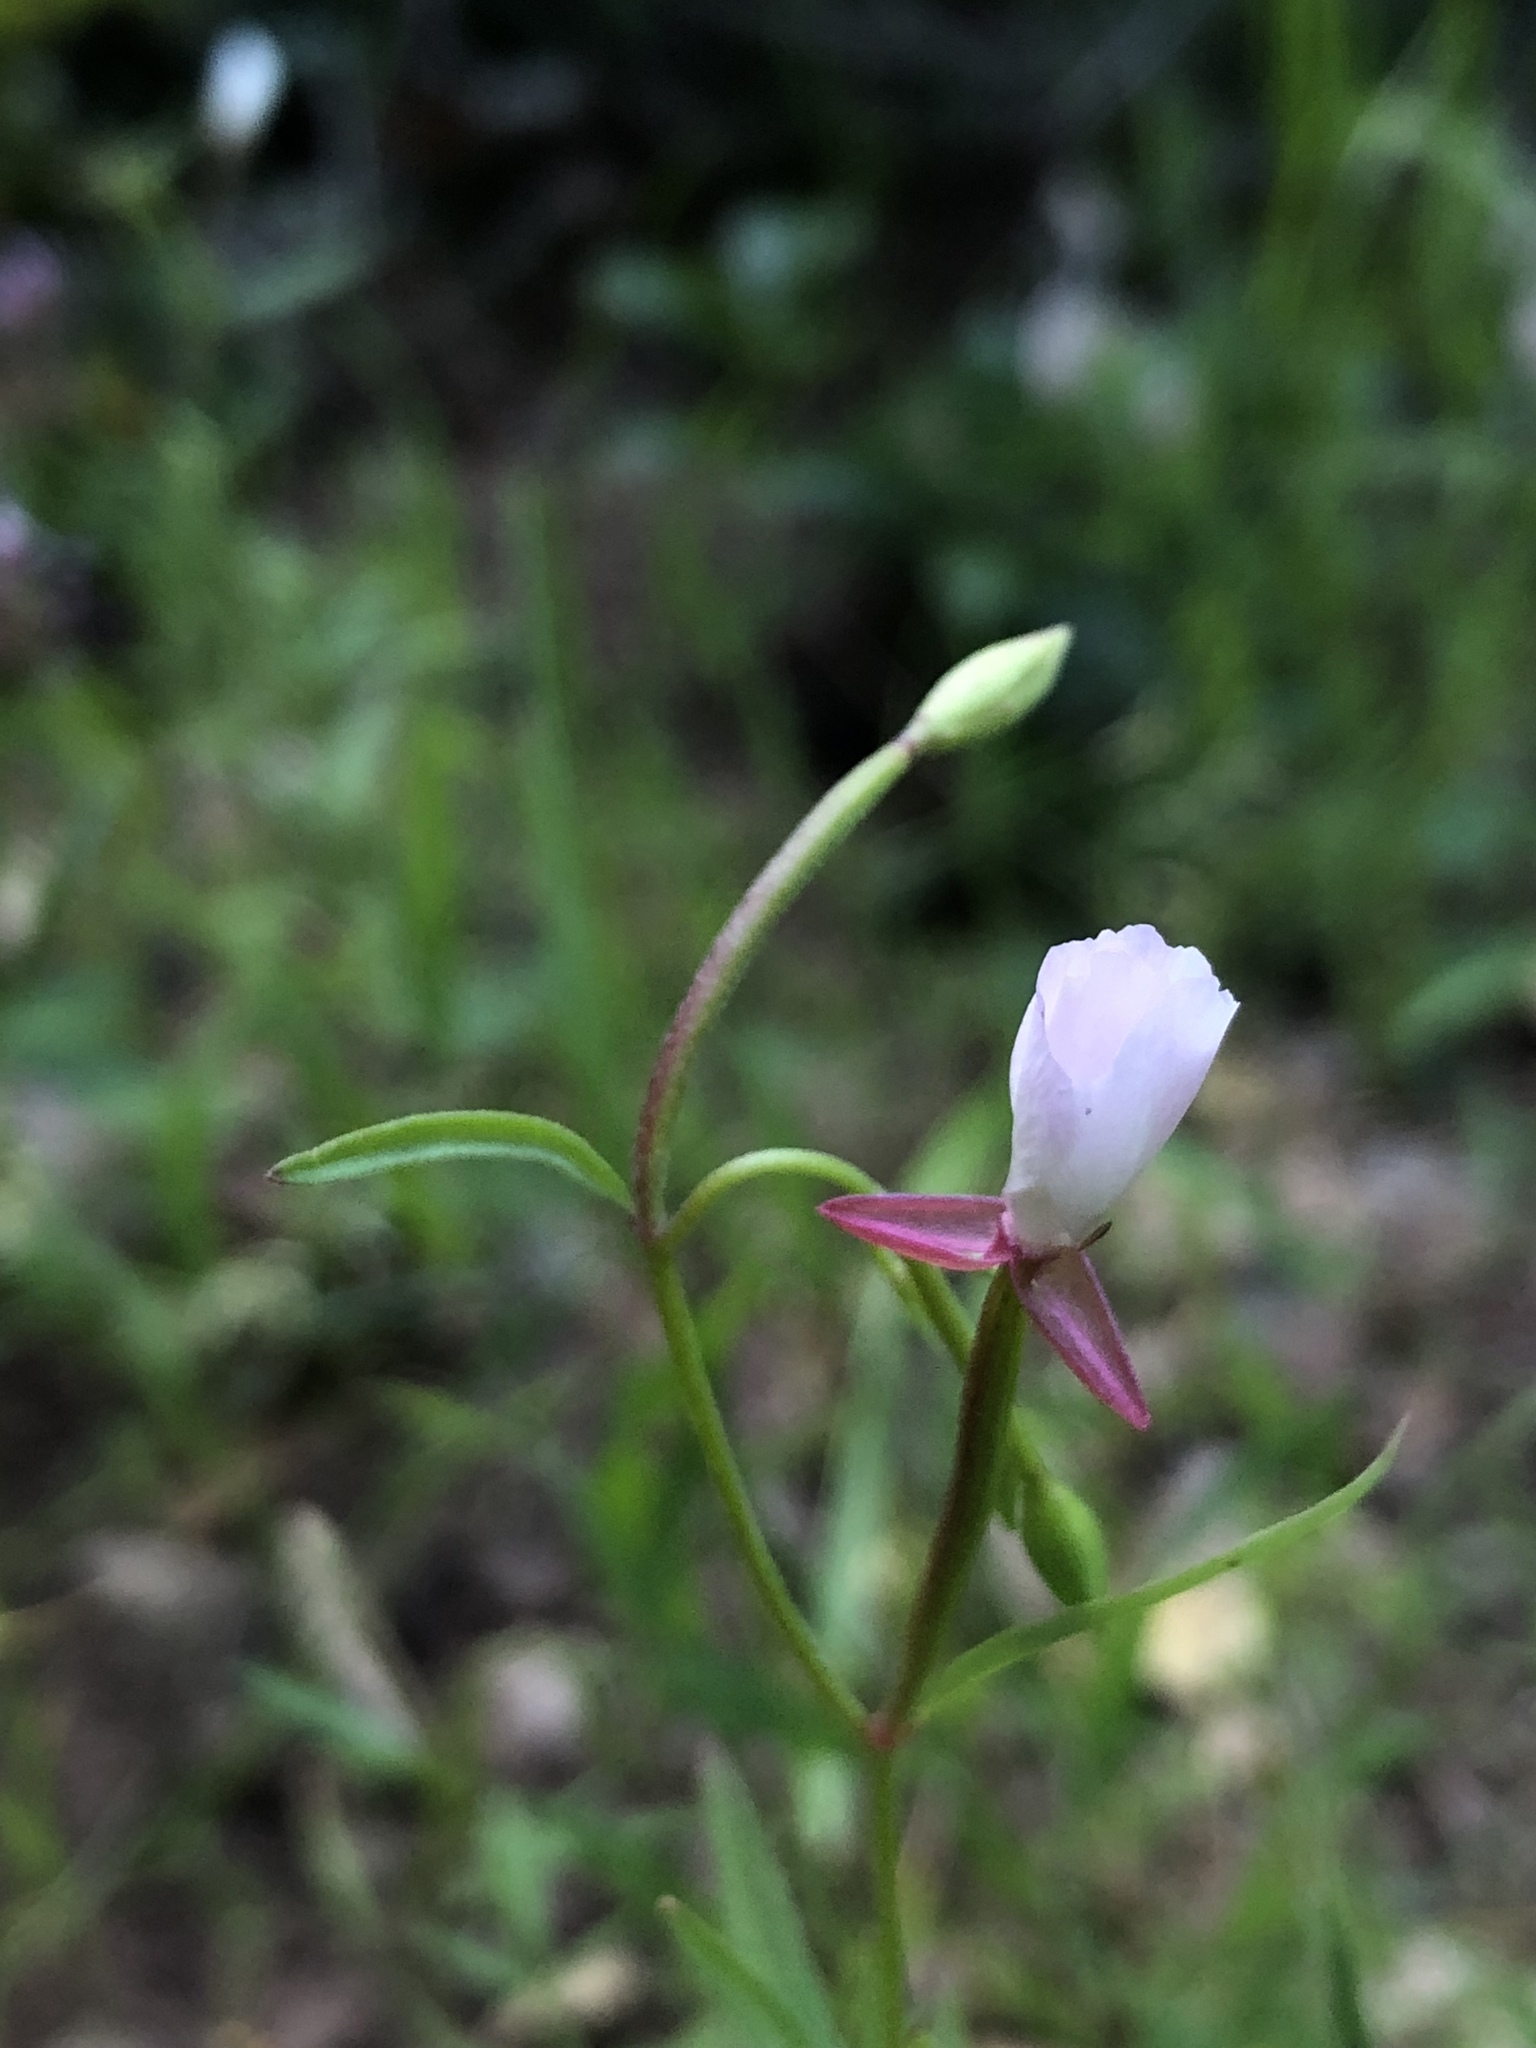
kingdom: Plantae
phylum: Tracheophyta
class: Magnoliopsida
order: Myrtales
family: Onagraceae
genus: Clarkia
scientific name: Clarkia epilobioides
